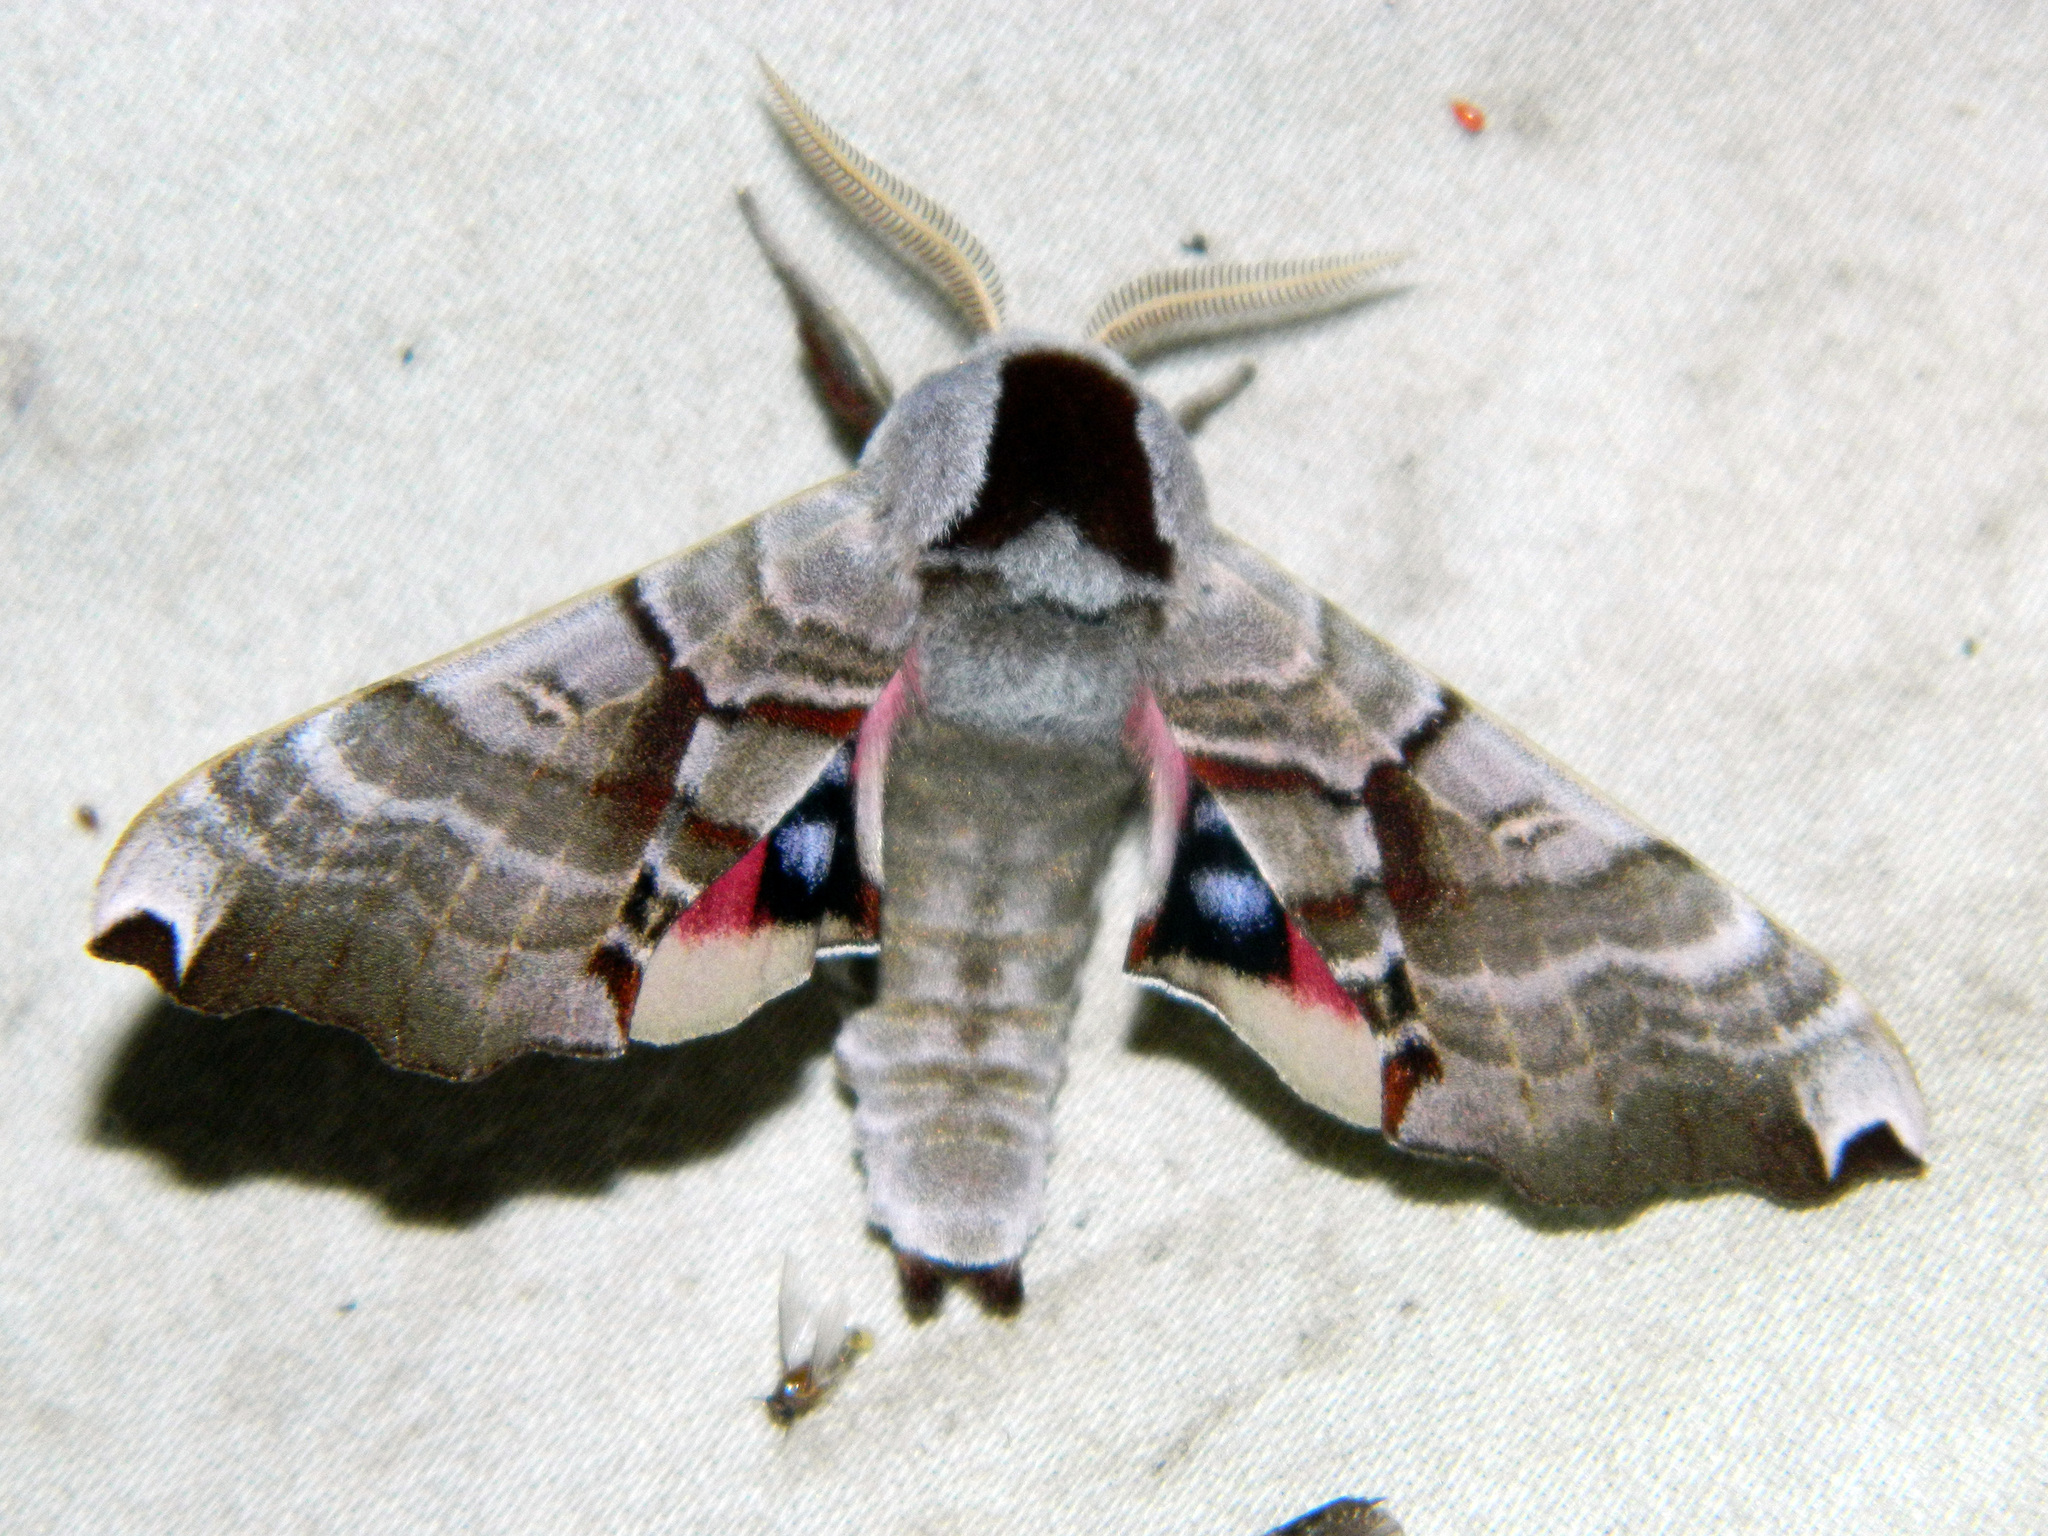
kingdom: Animalia
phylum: Arthropoda
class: Insecta
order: Lepidoptera
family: Sphingidae
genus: Smerinthus
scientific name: Smerinthus jamaicensis
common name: Twin spotted sphinx
